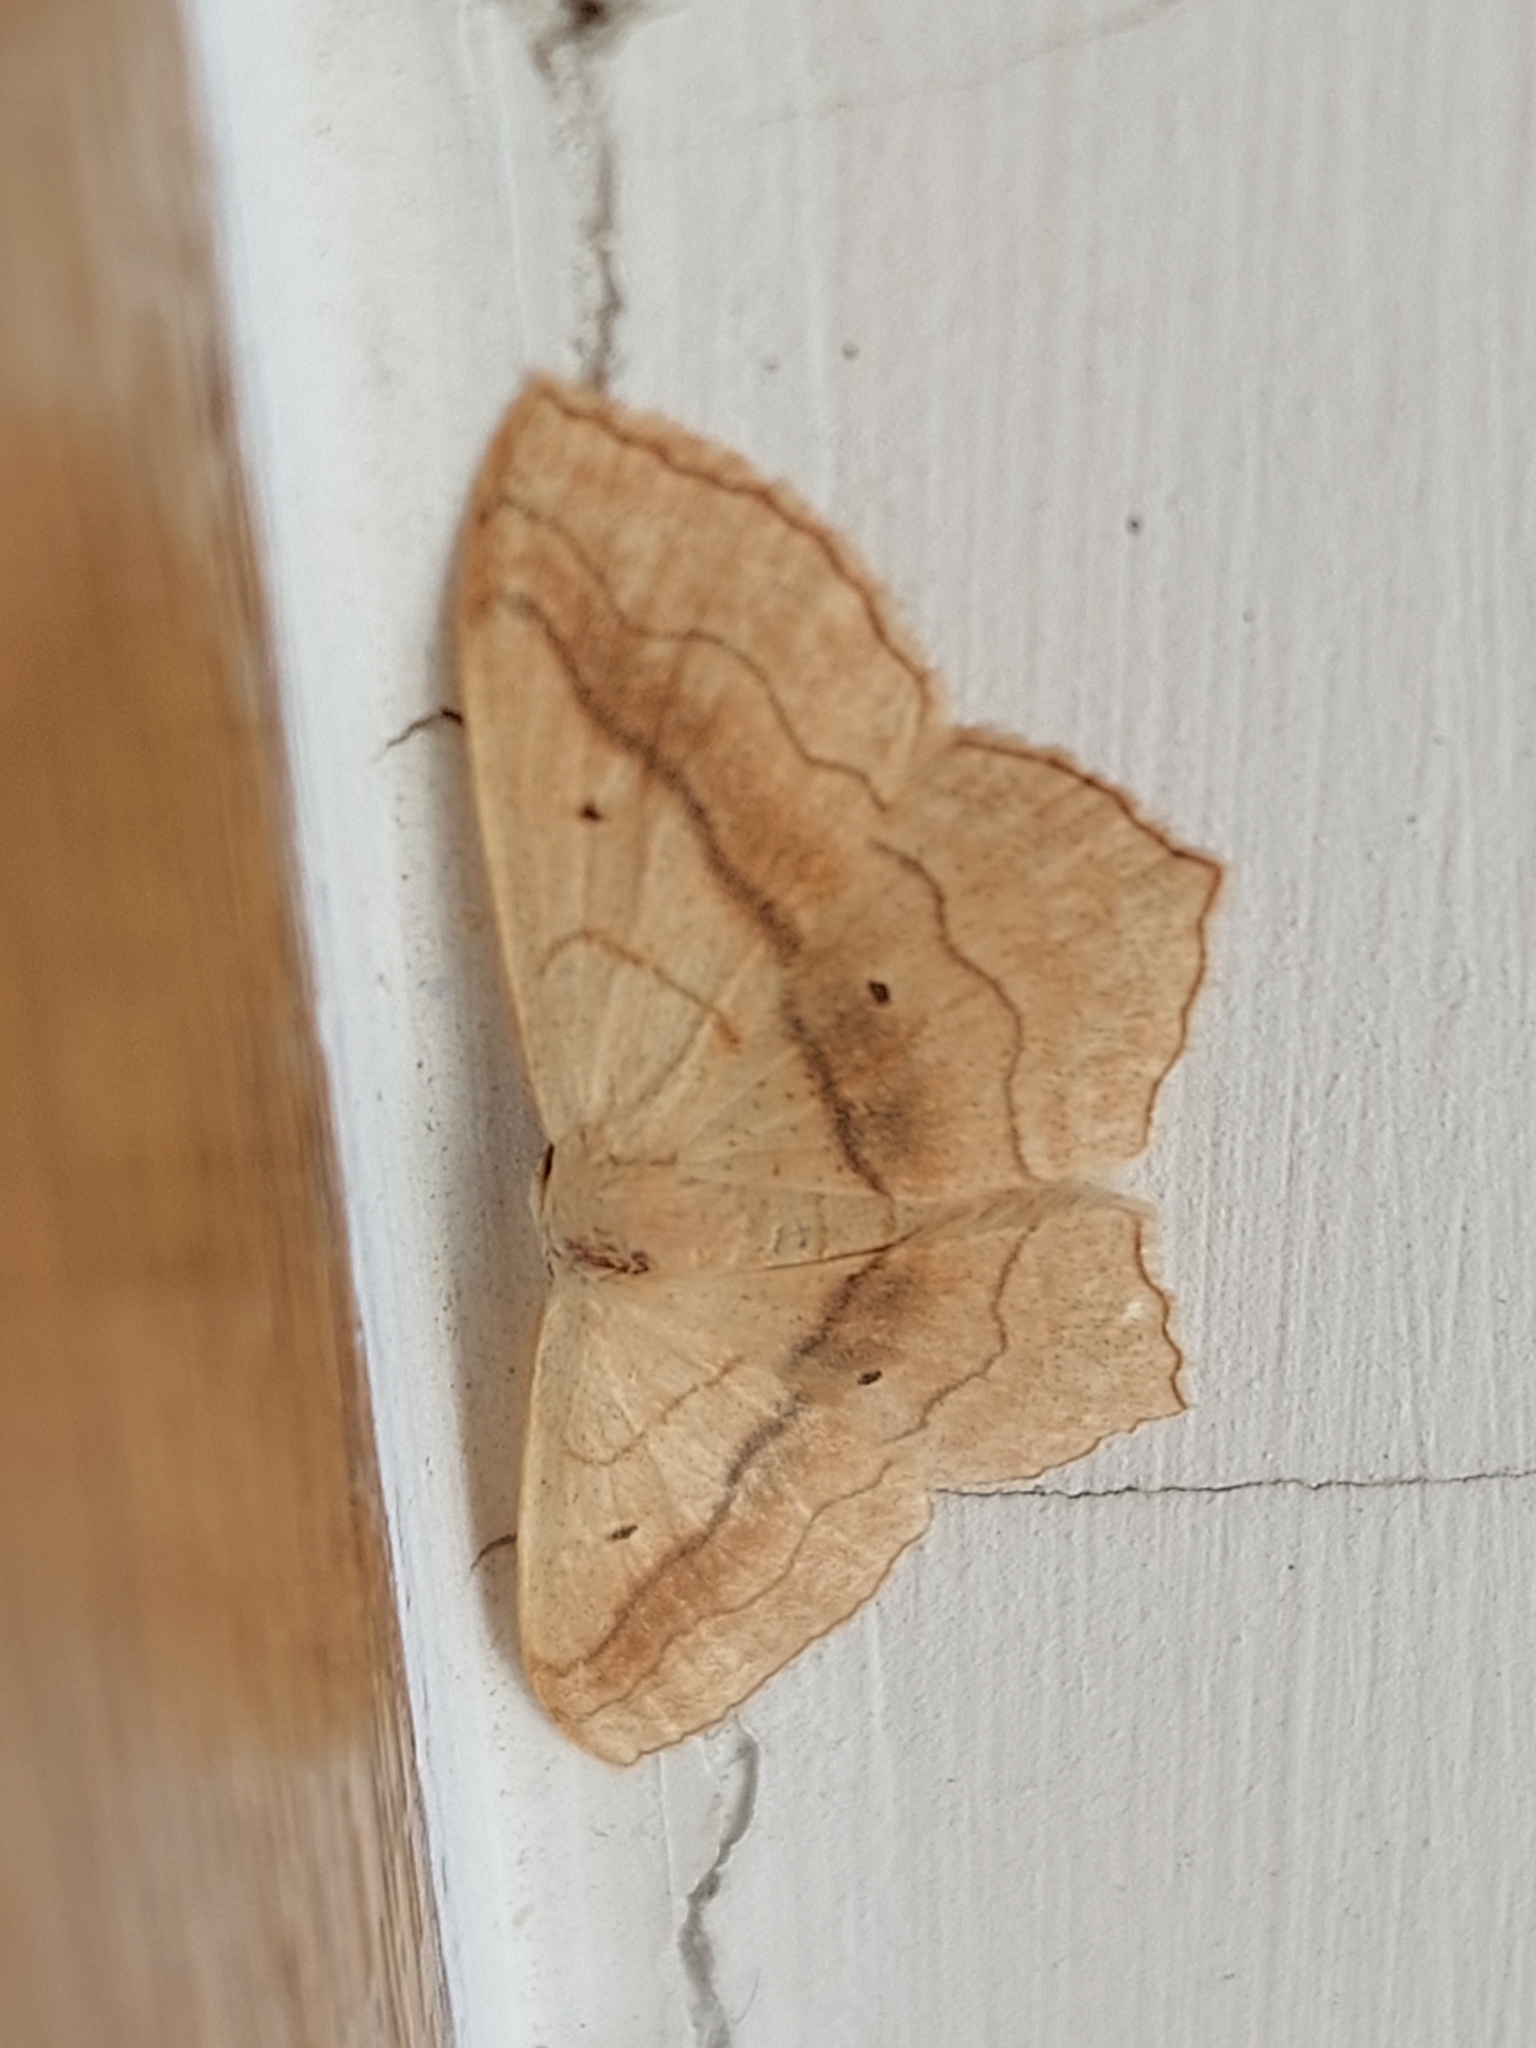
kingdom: Animalia
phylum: Arthropoda
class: Insecta
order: Lepidoptera
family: Geometridae
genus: Scopula
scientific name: Scopula imitaria
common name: Small blood-vein
